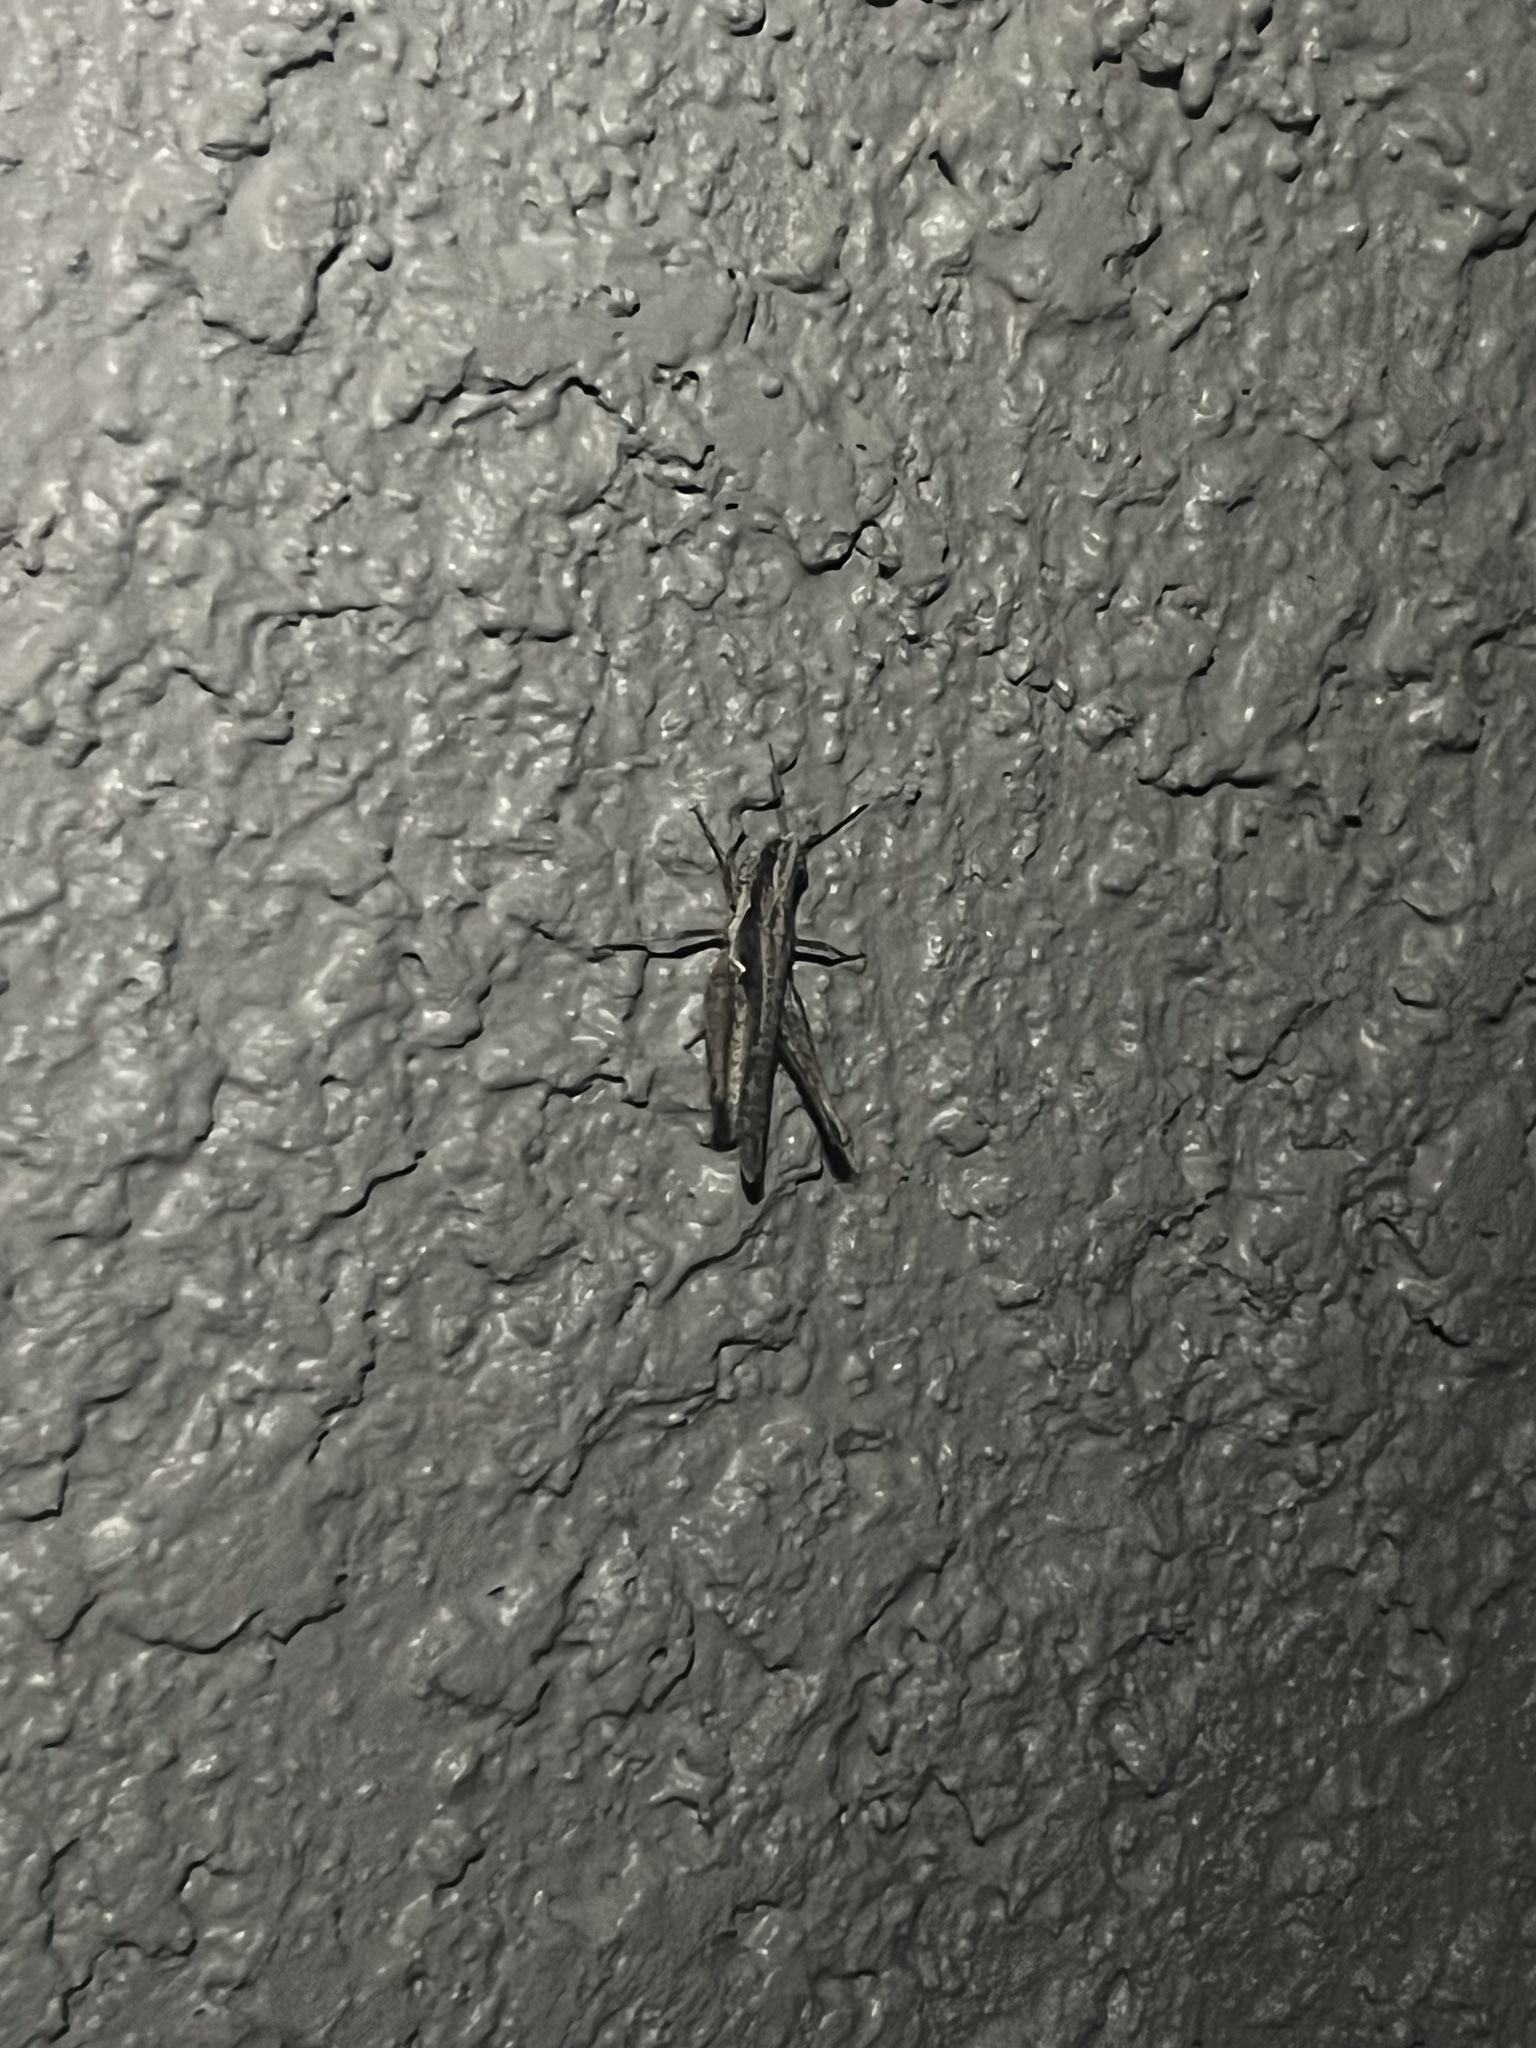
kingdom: Animalia
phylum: Arthropoda
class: Insecta
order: Orthoptera
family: Acrididae
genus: Horesidotes
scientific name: Horesidotes cinereus
